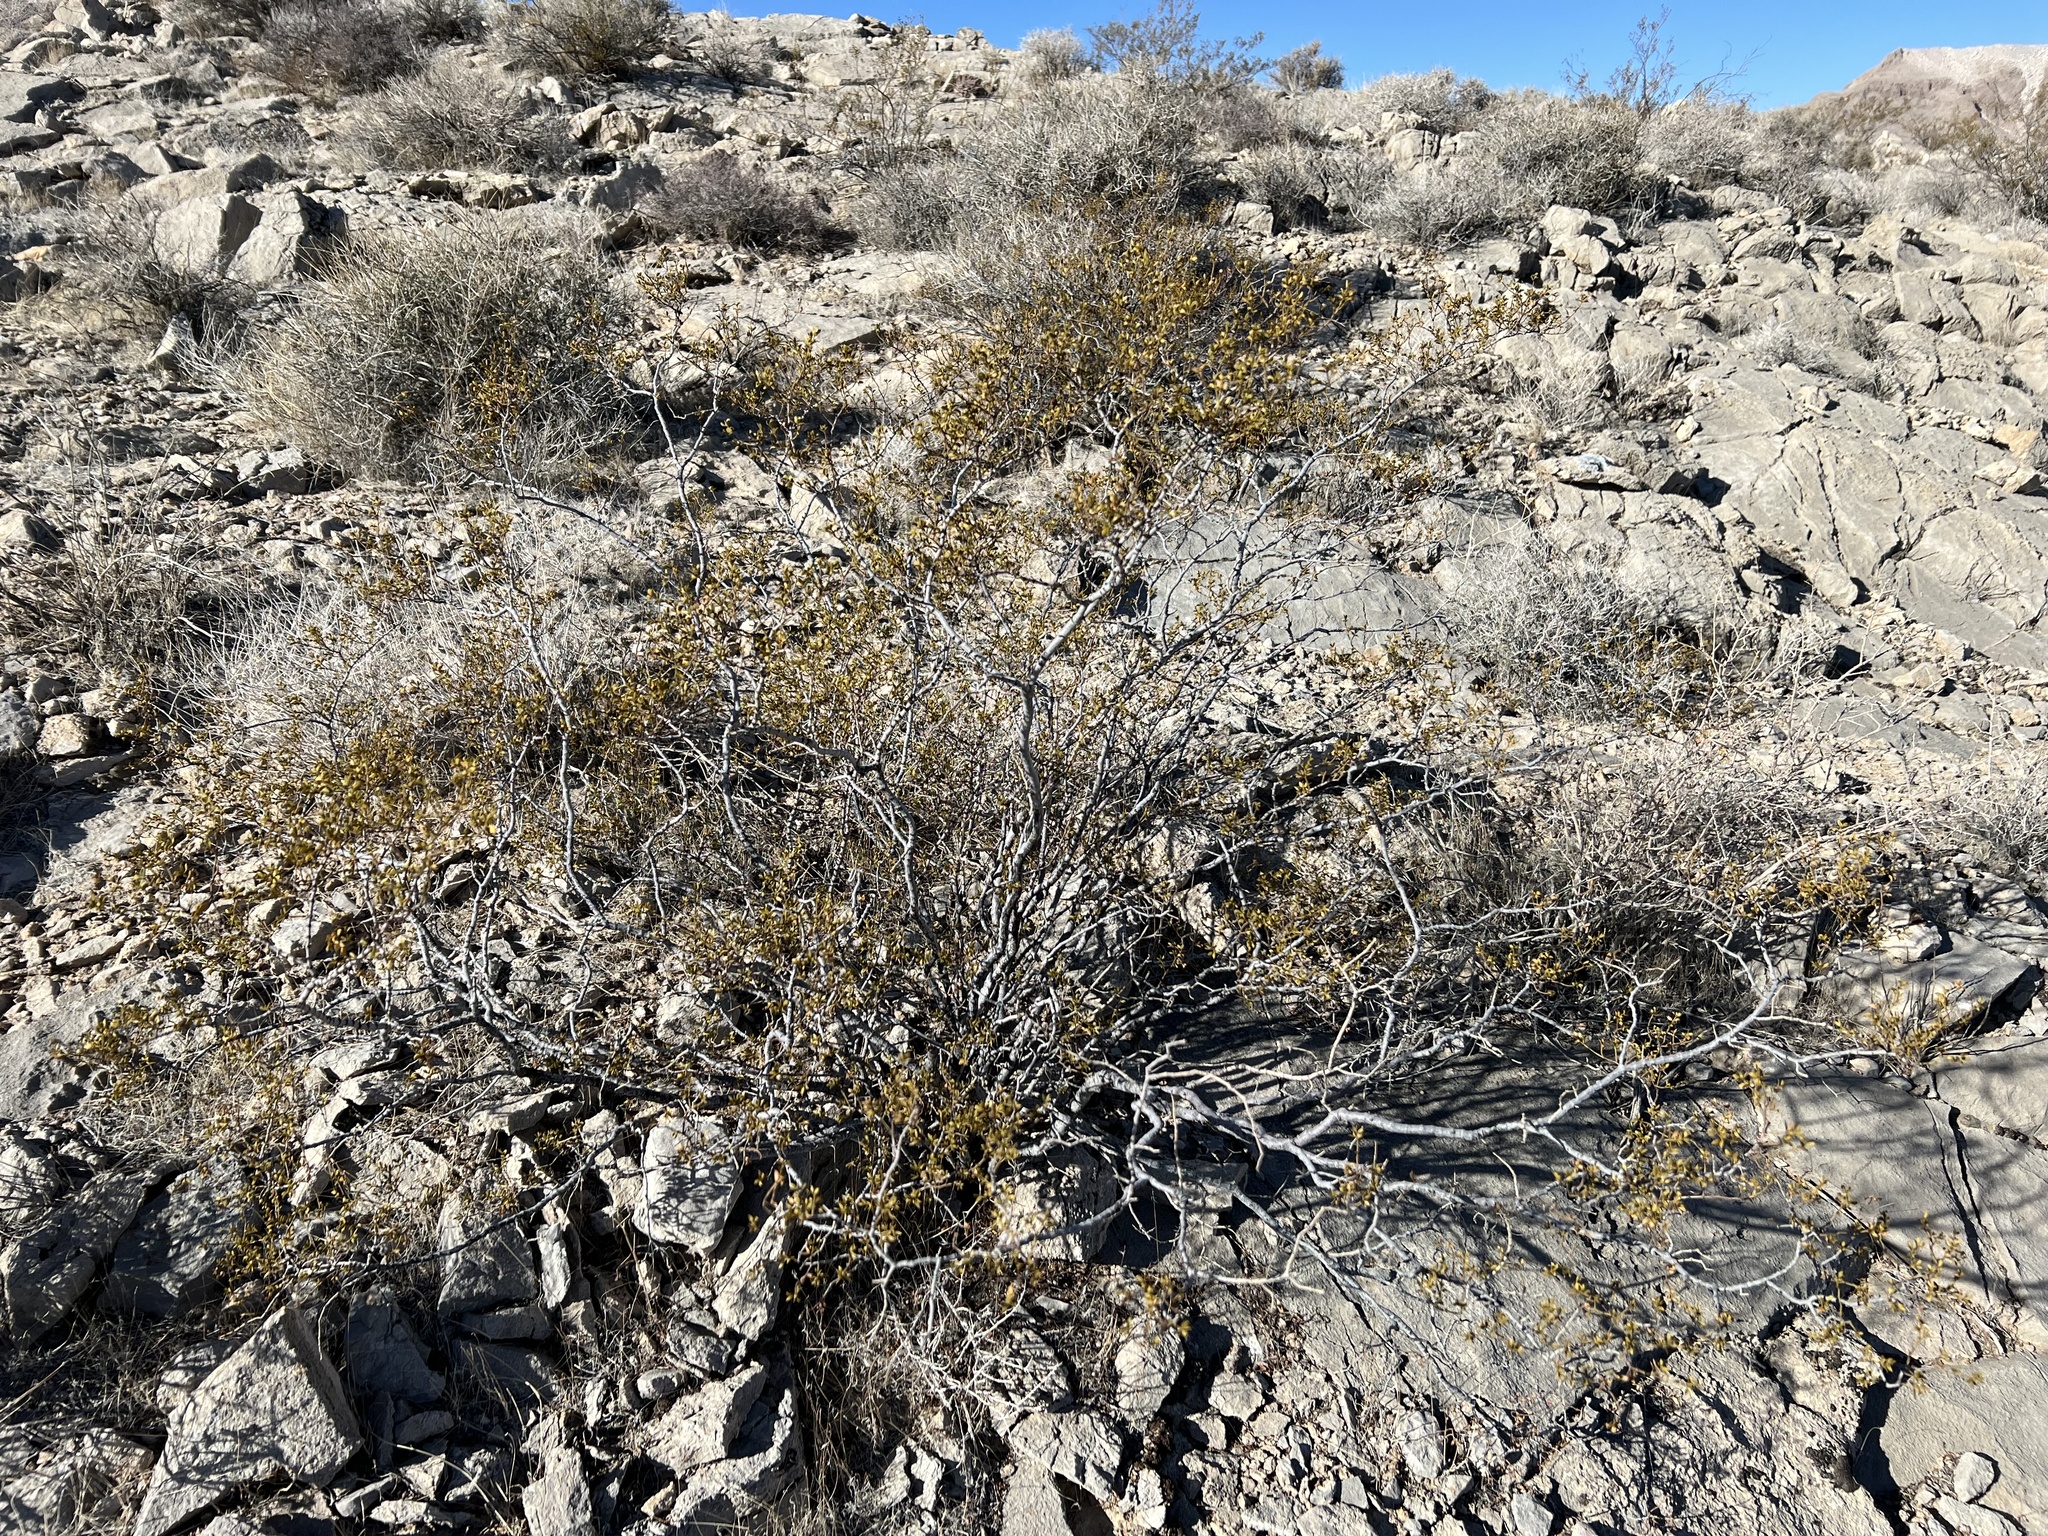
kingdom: Plantae
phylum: Tracheophyta
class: Magnoliopsida
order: Zygophyllales
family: Zygophyllaceae
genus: Larrea
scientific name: Larrea tridentata
